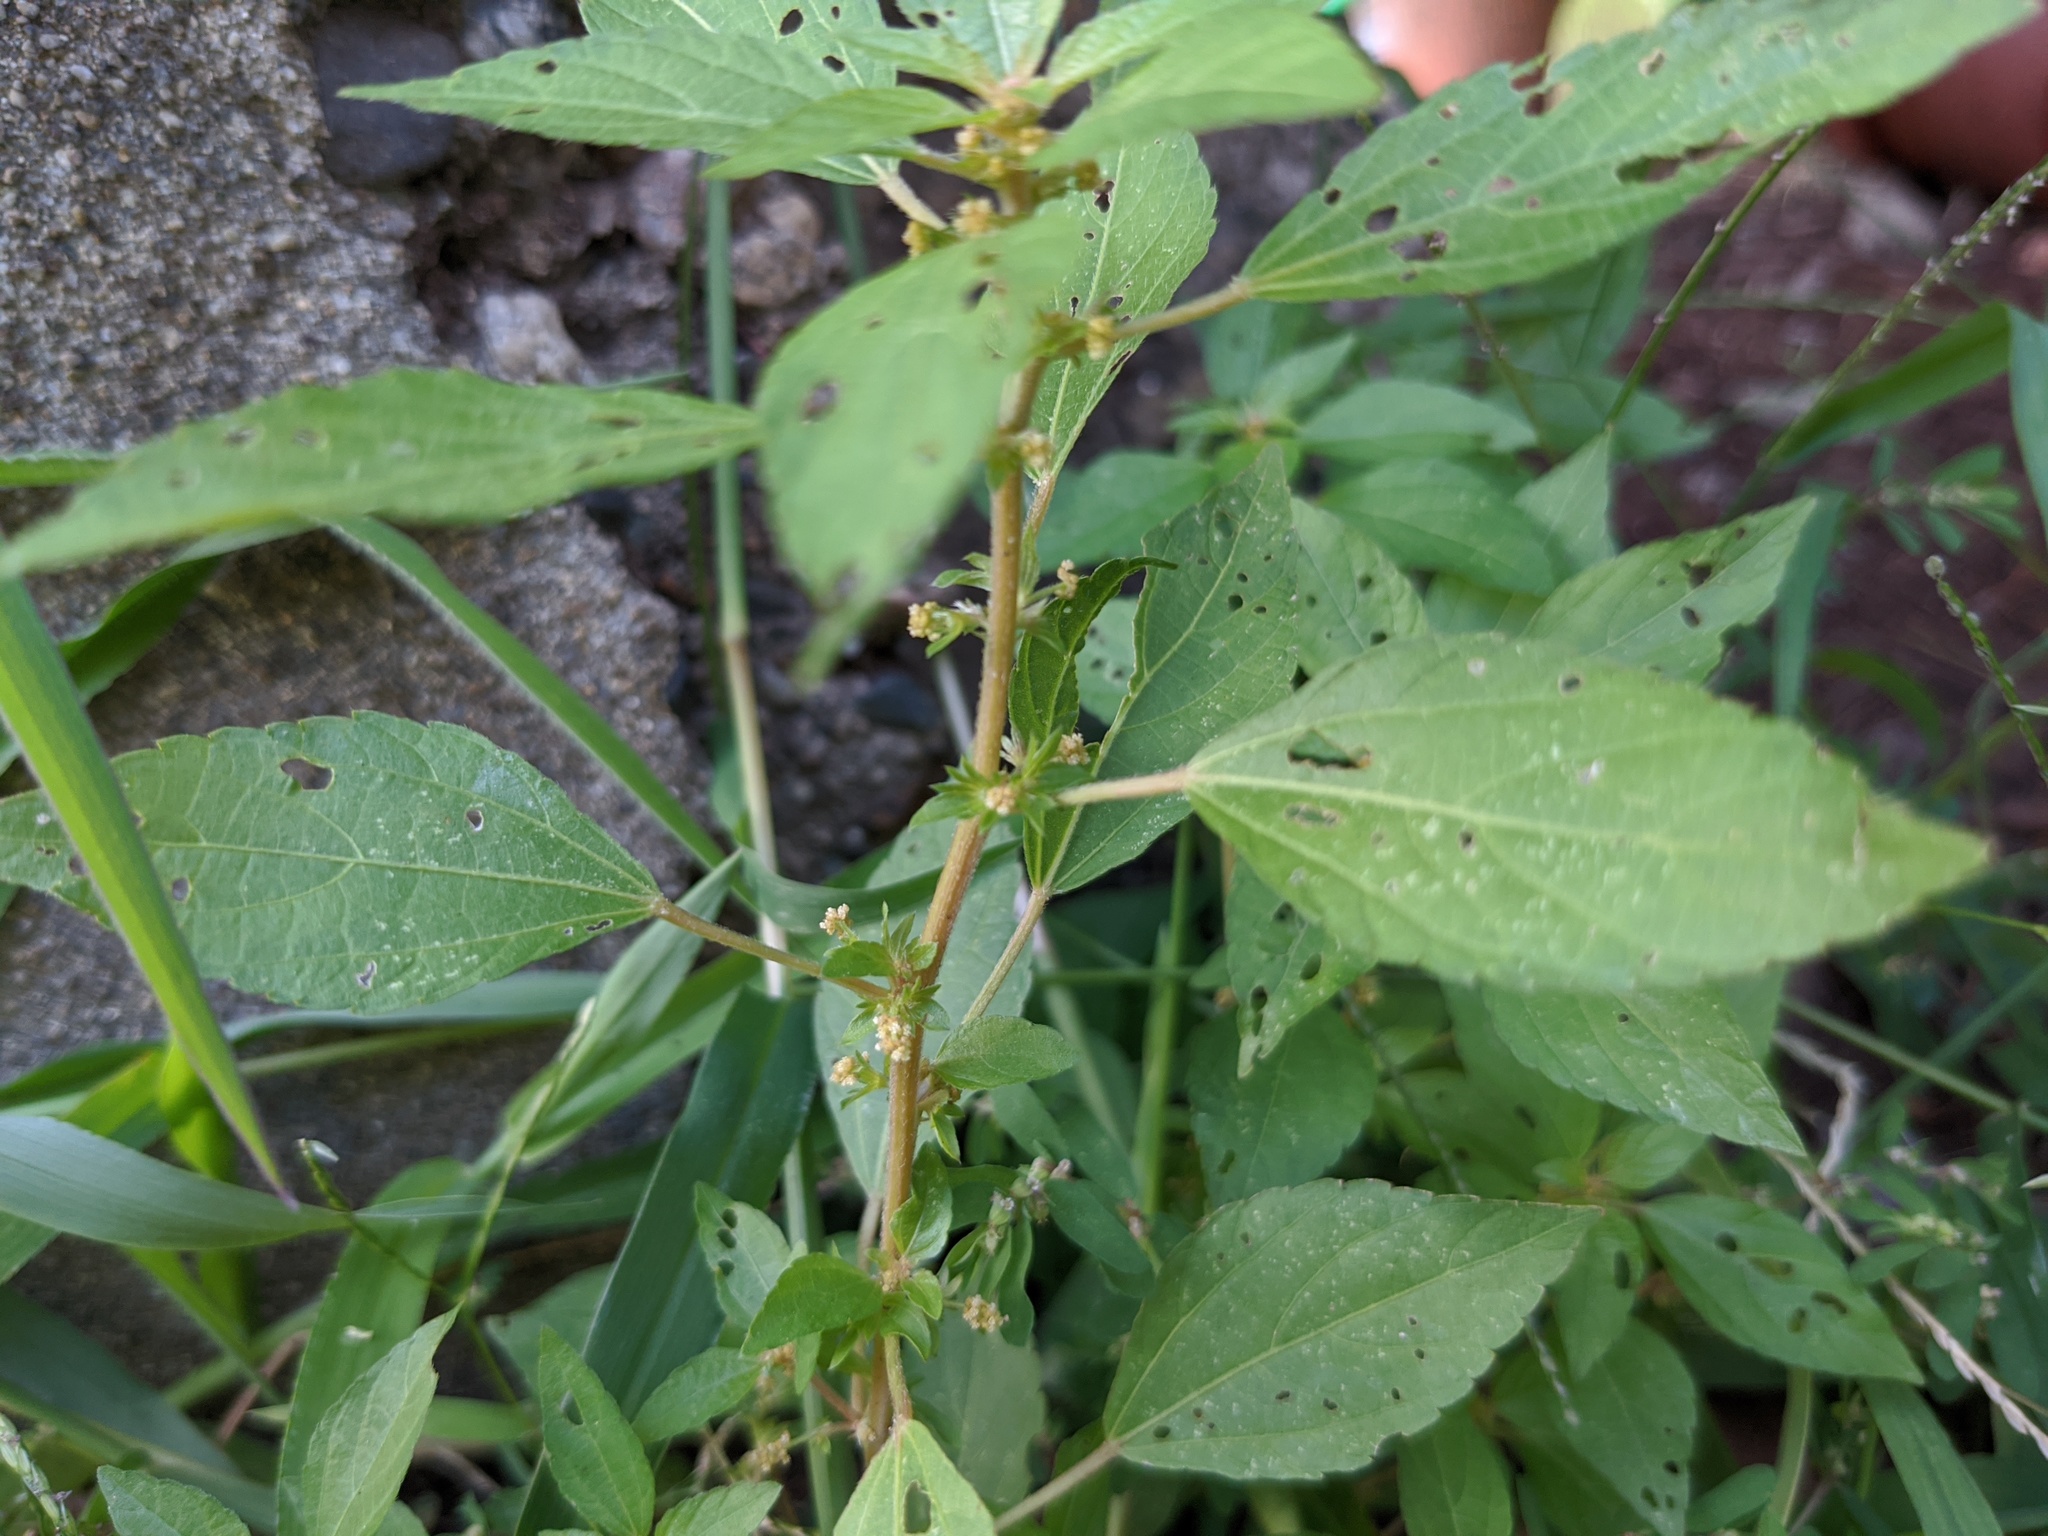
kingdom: Plantae
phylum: Tracheophyta
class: Magnoliopsida
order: Malpighiales
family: Euphorbiaceae
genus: Acalypha
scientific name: Acalypha rhomboidea
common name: Rhombic copperleaf
